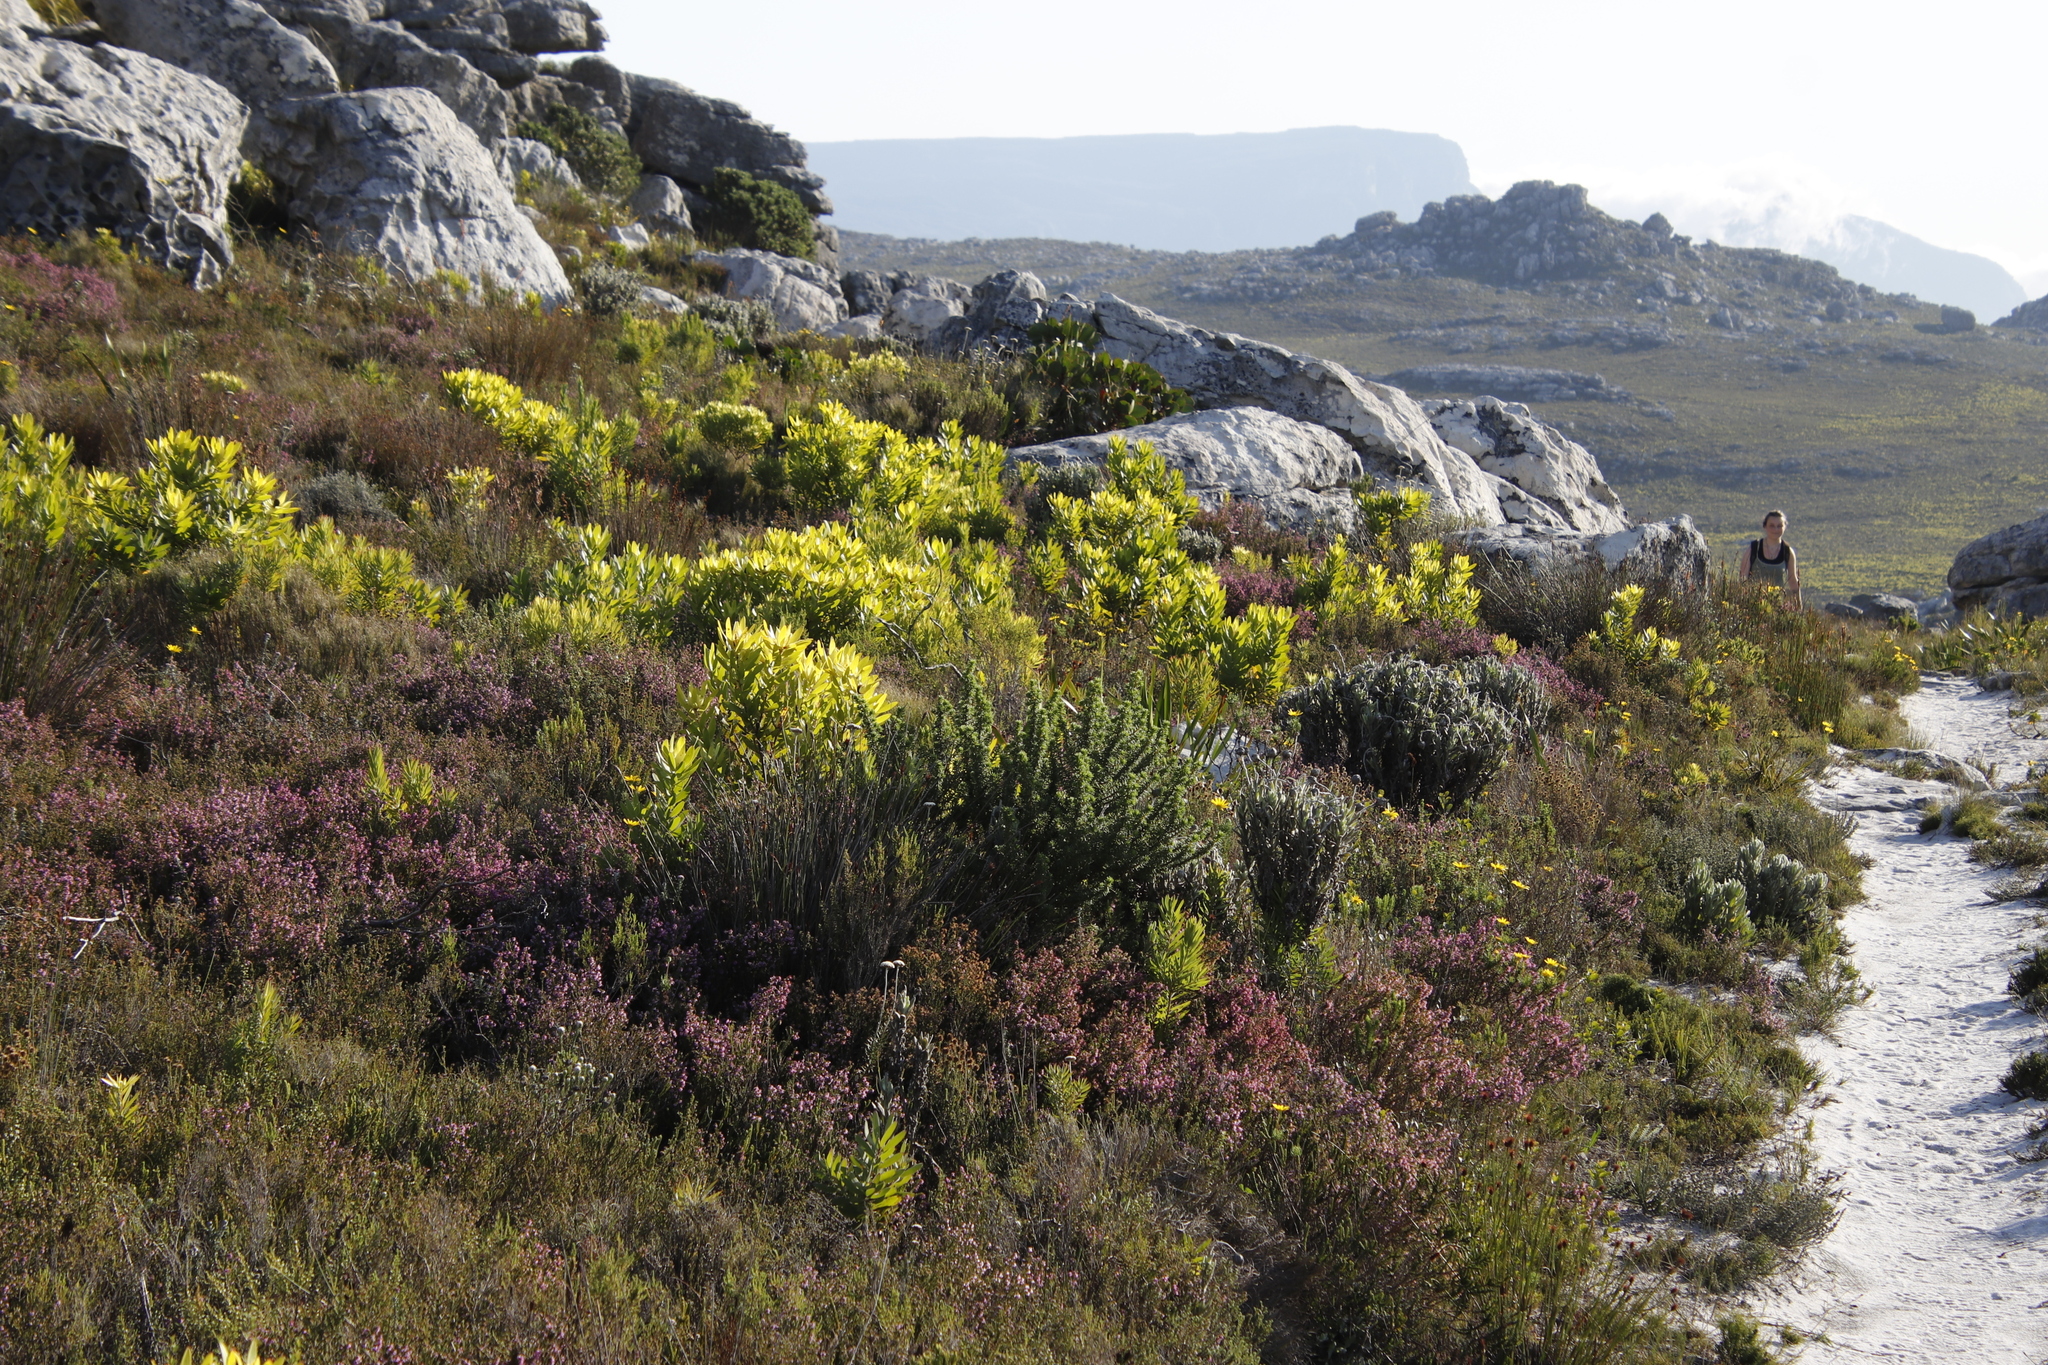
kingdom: Plantae
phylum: Tracheophyta
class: Magnoliopsida
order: Proteales
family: Proteaceae
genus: Leucadendron
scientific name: Leucadendron laureolum
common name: Golden sunshinebush
